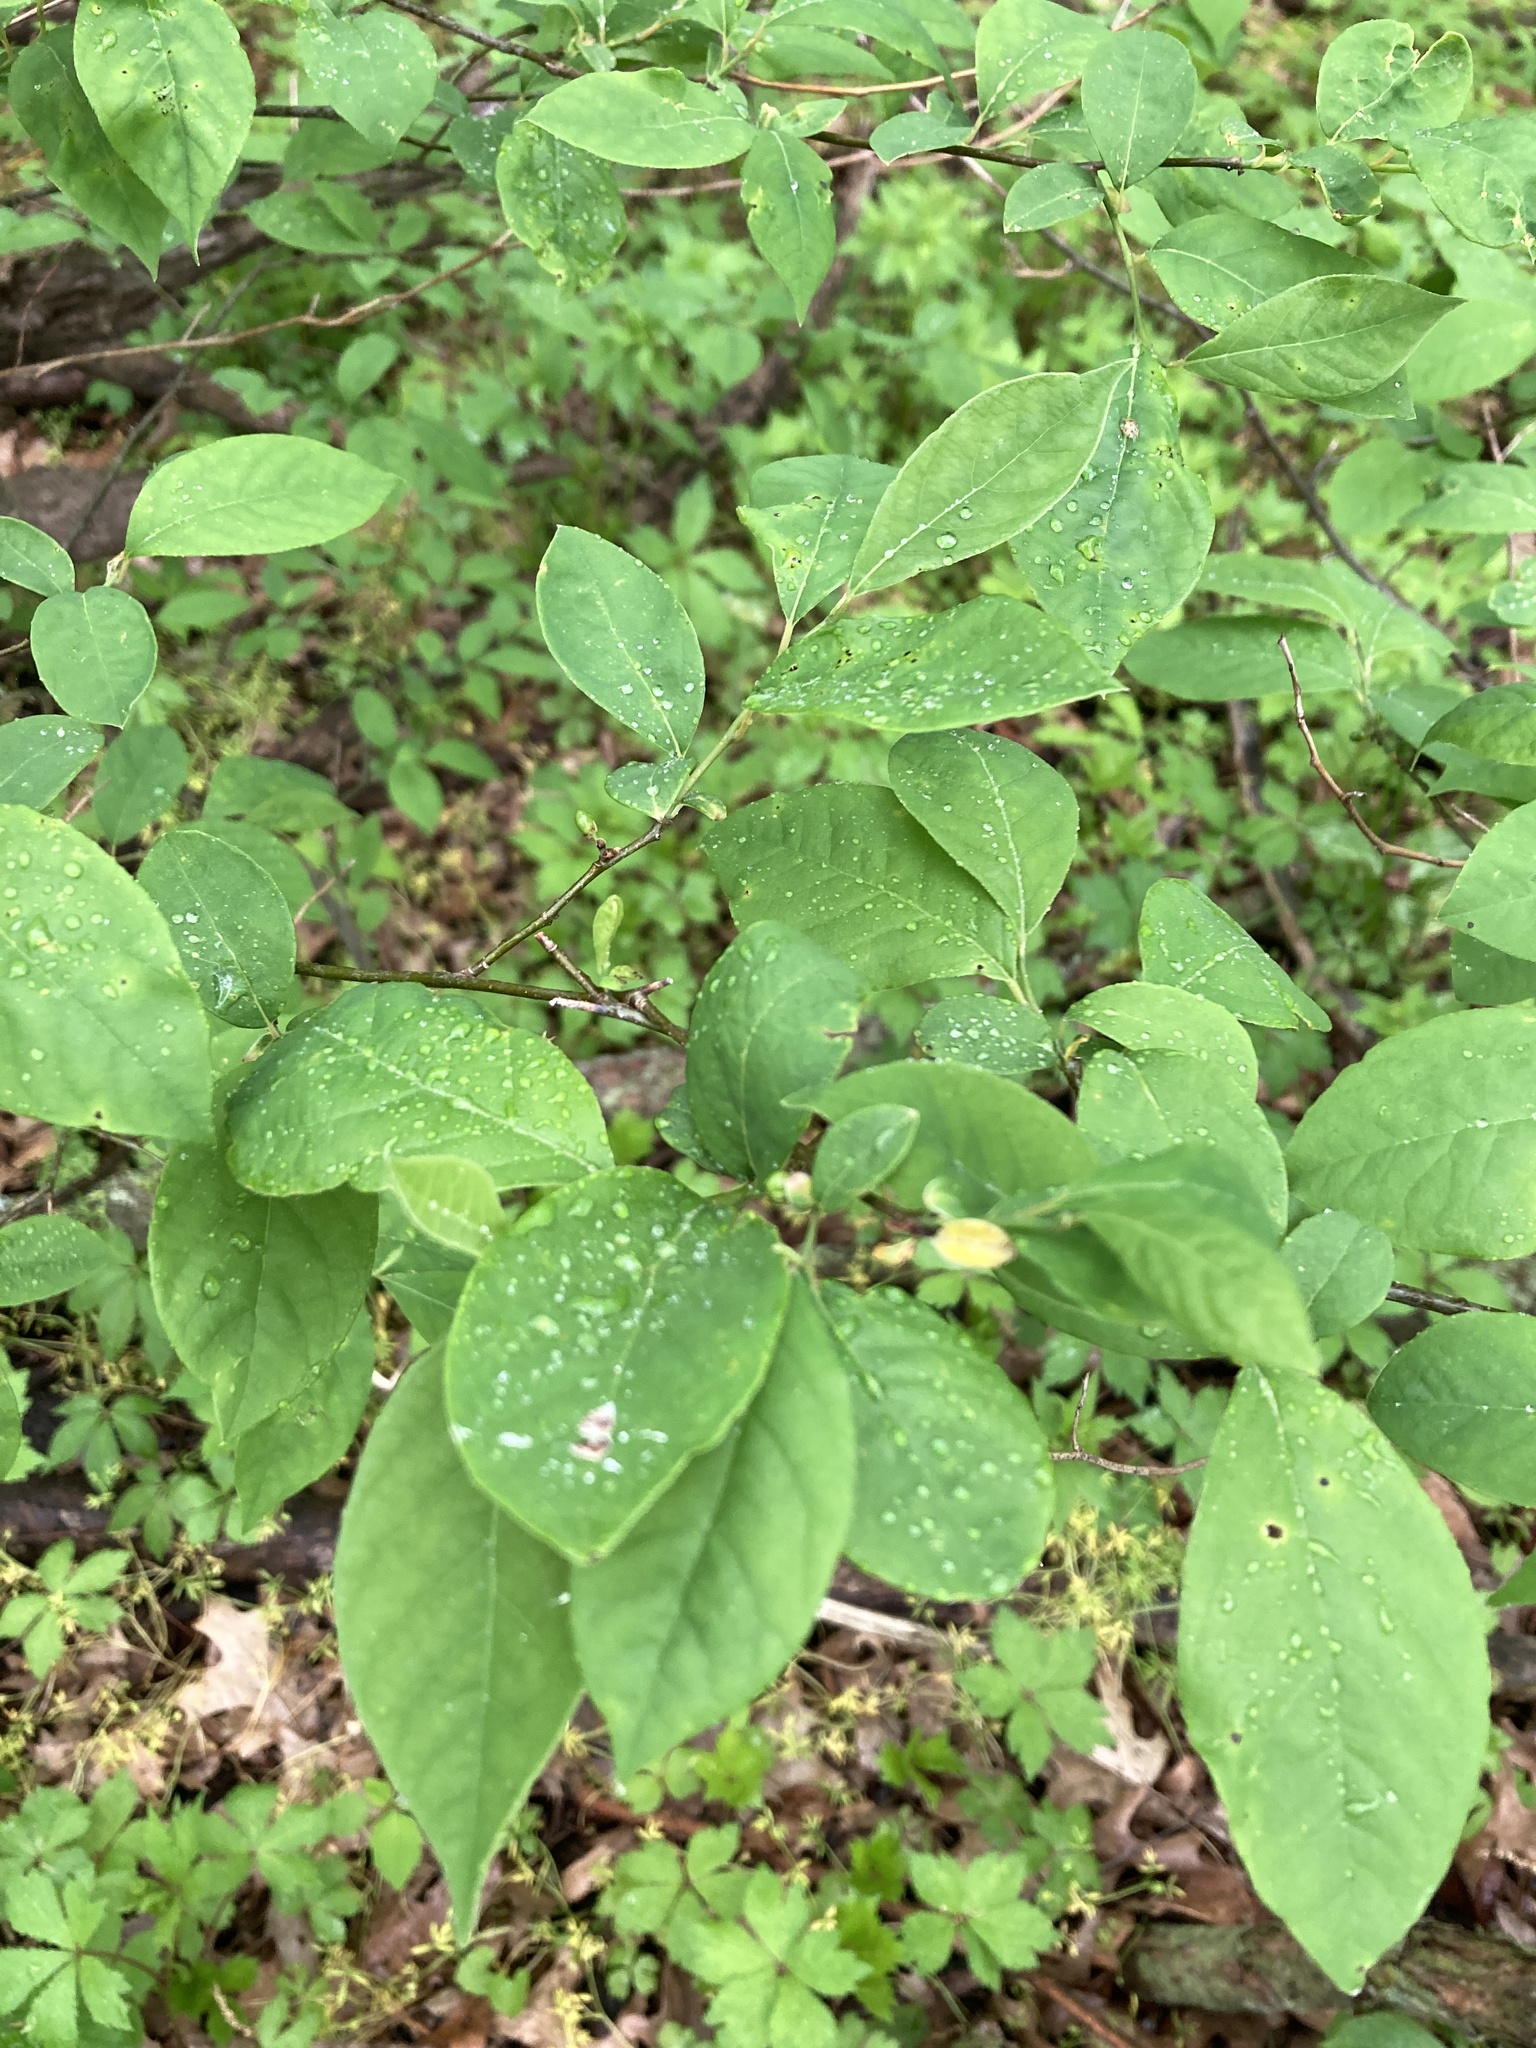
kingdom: Plantae
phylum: Tracheophyta
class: Magnoliopsida
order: Laurales
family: Lauraceae
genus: Lindera
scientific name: Lindera benzoin
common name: Spicebush
